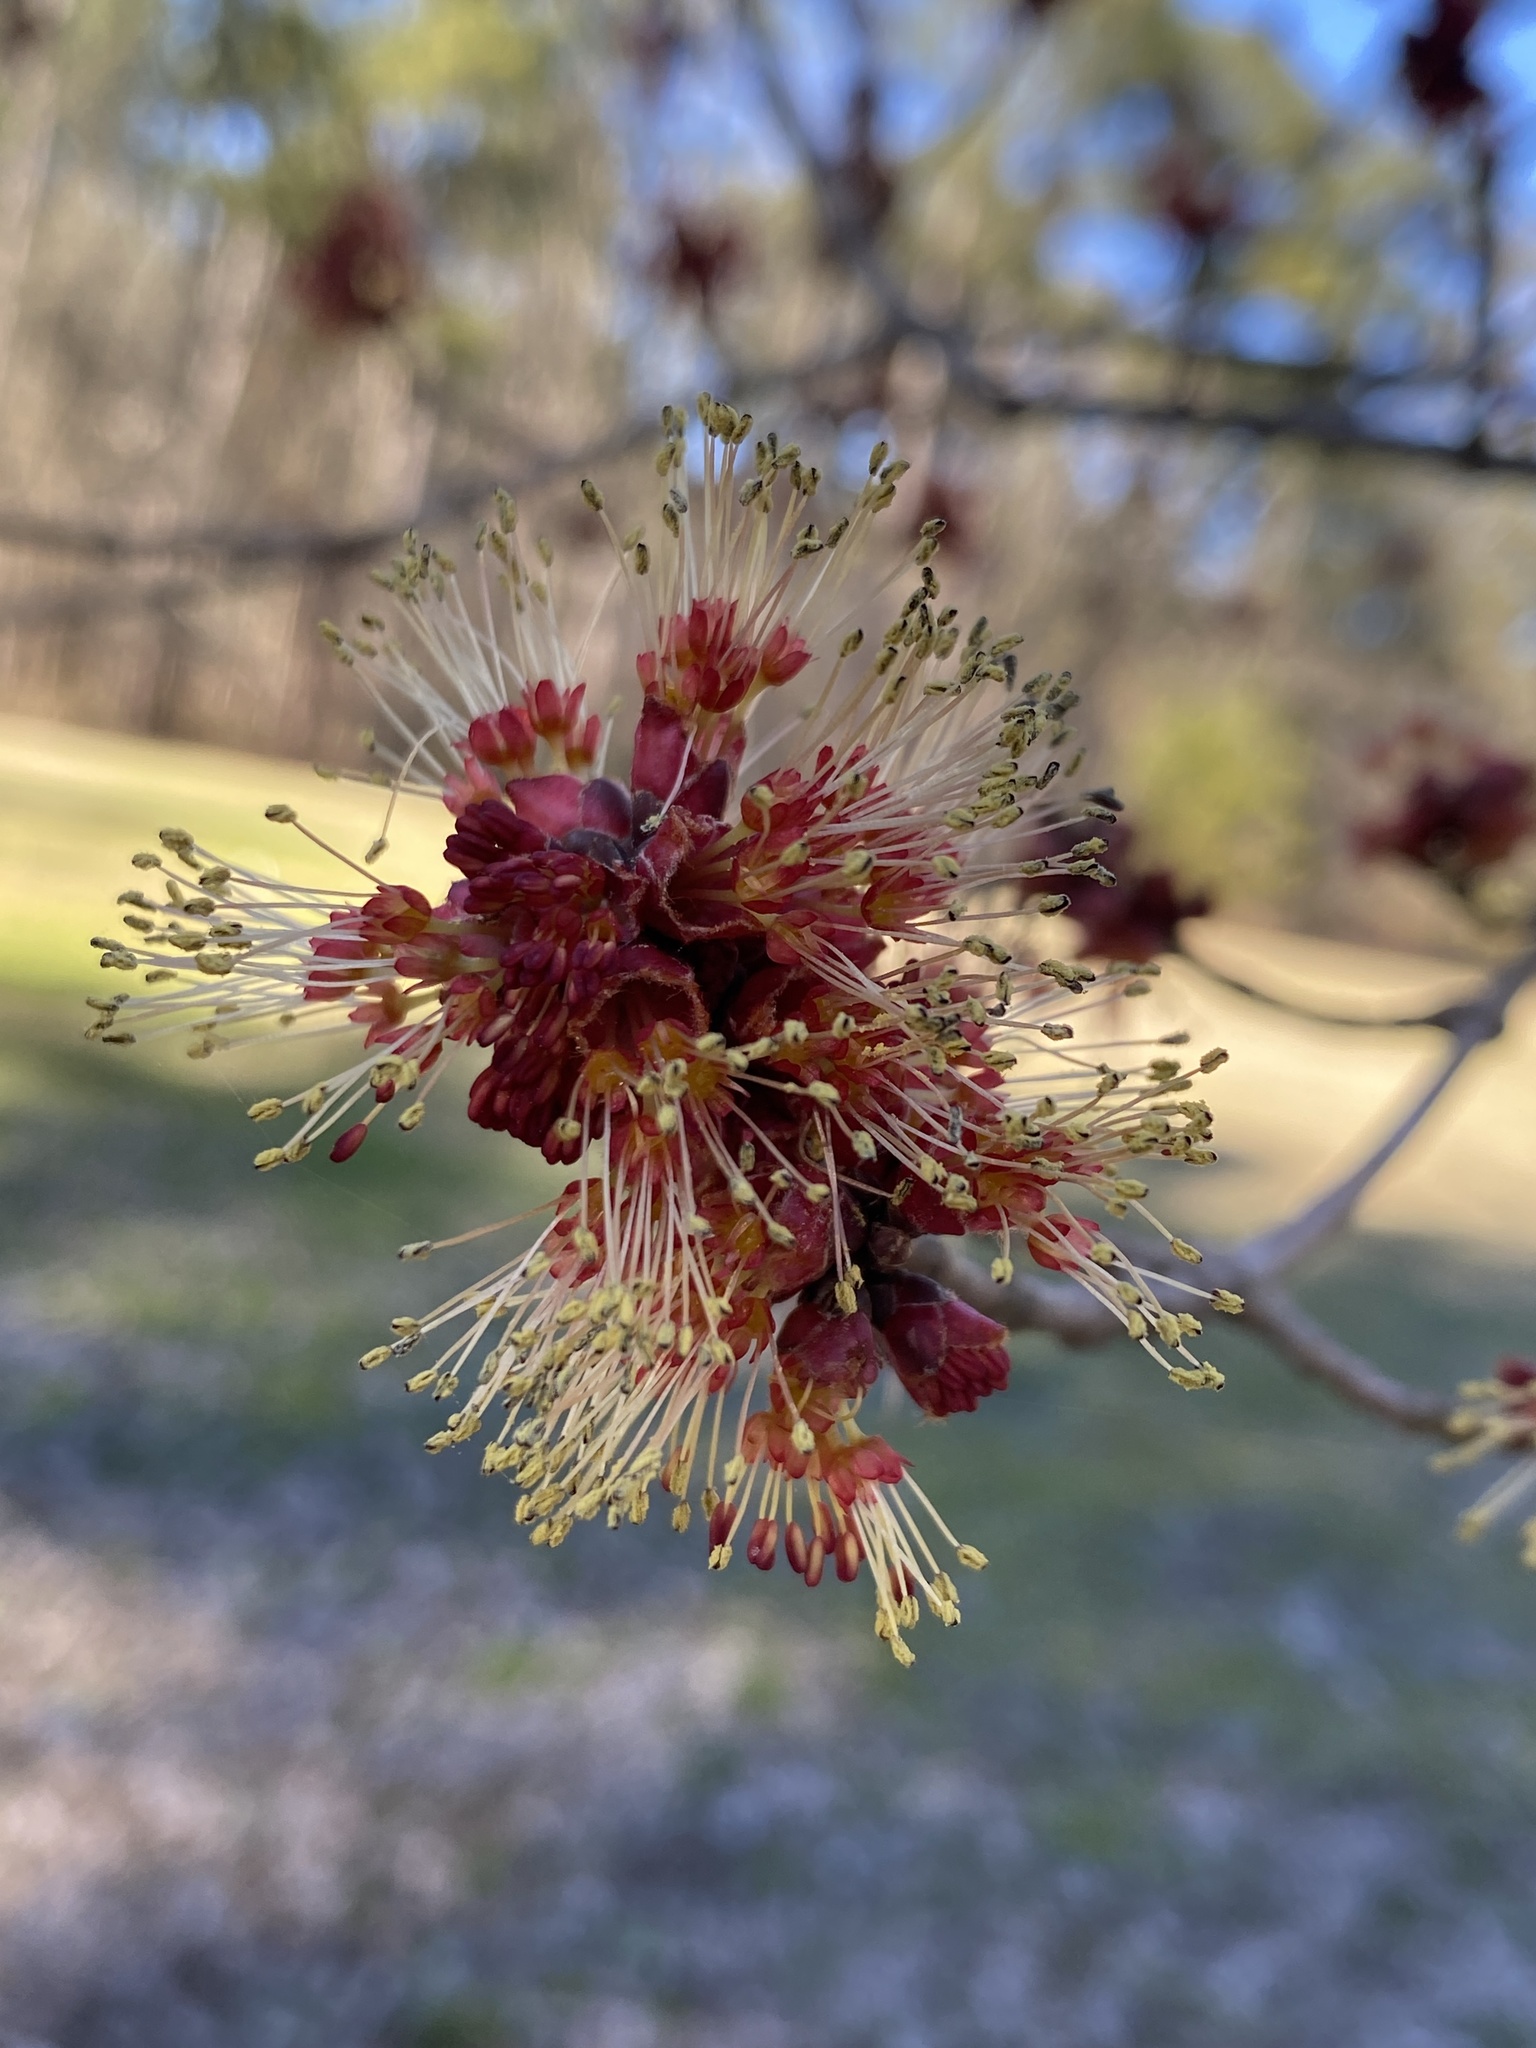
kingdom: Plantae
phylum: Tracheophyta
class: Magnoliopsida
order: Sapindales
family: Sapindaceae
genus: Acer
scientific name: Acer rubrum
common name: Red maple
